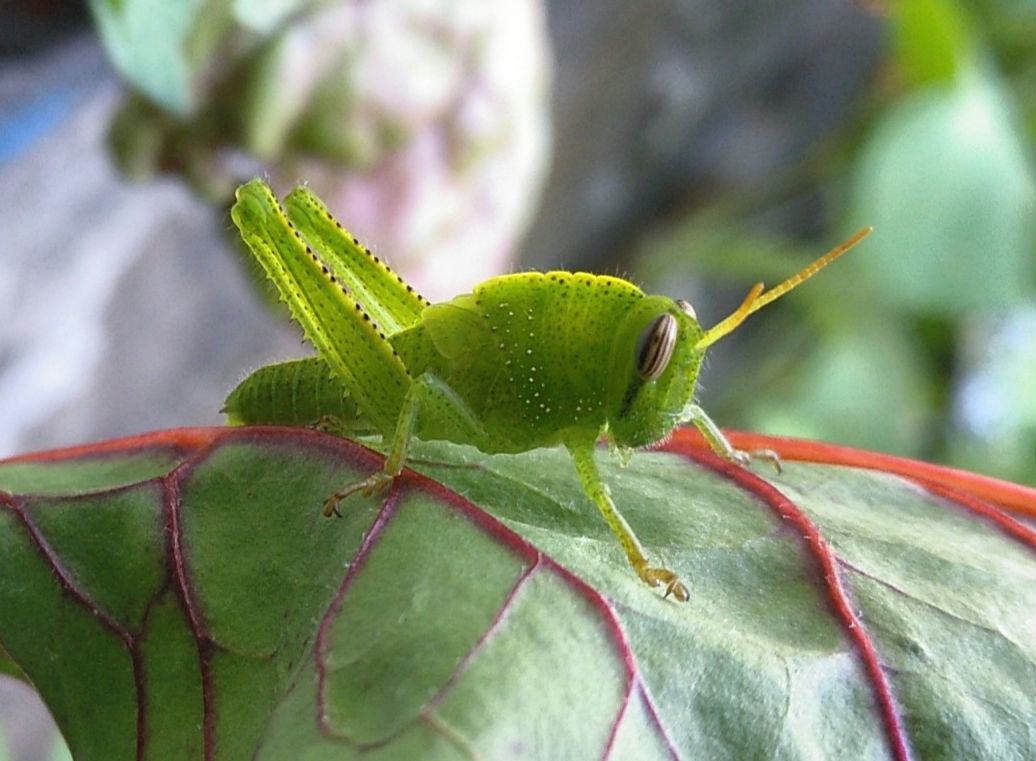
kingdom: Animalia
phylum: Arthropoda
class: Insecta
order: Orthoptera
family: Acrididae
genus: Anacridium
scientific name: Anacridium aegyptium
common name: Egyptian grasshopper
